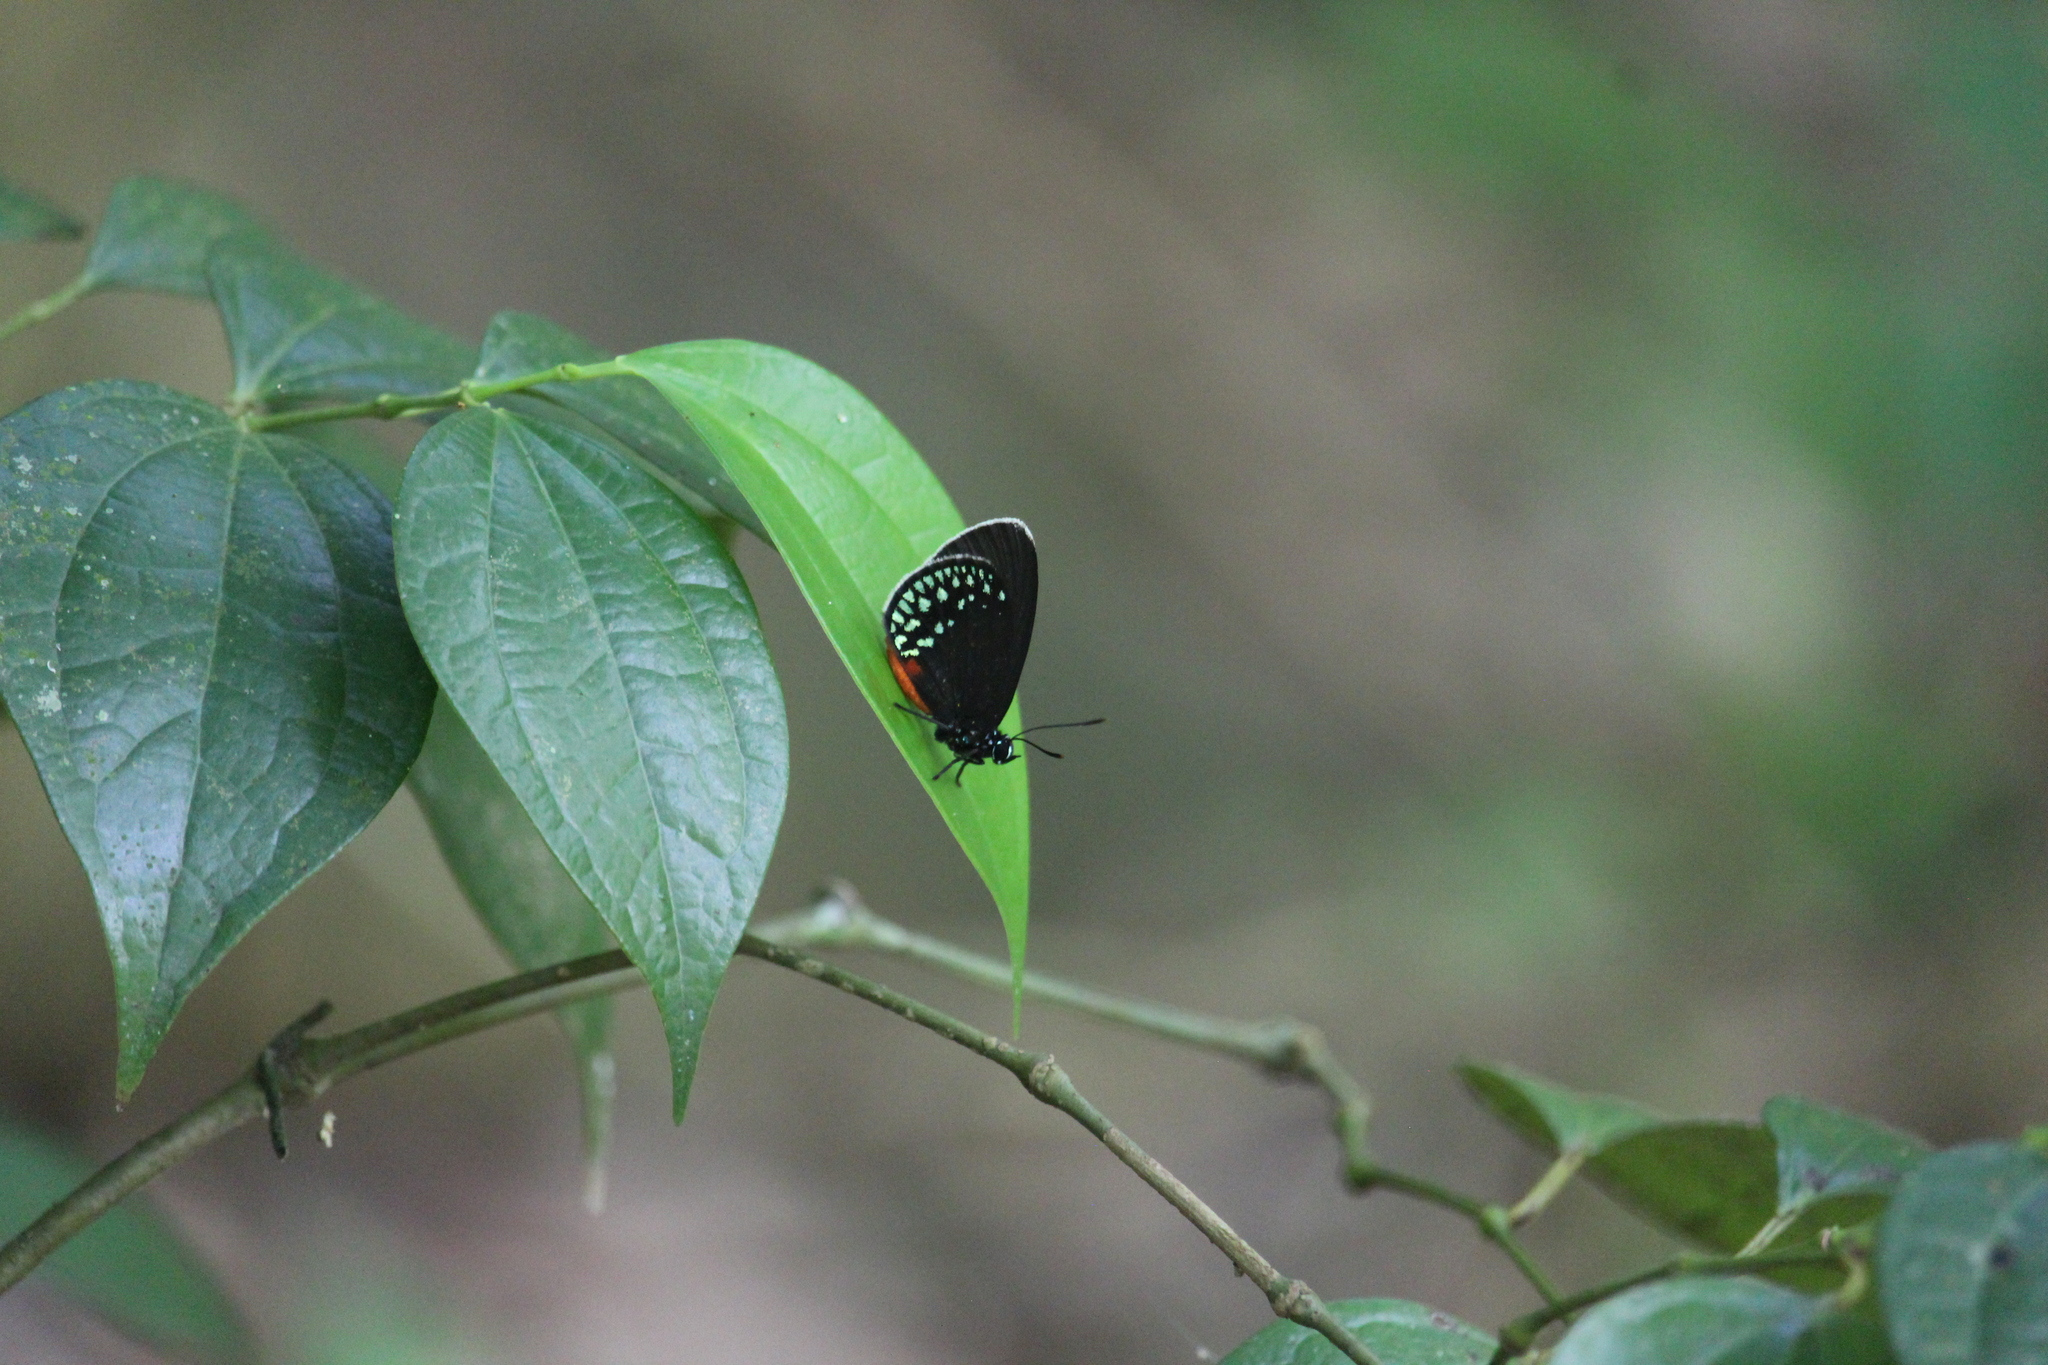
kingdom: Animalia
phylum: Arthropoda
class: Insecta
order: Lepidoptera
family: Lycaenidae
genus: Eumaeus
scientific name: Eumaeus toxea
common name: Mexican cycadian
